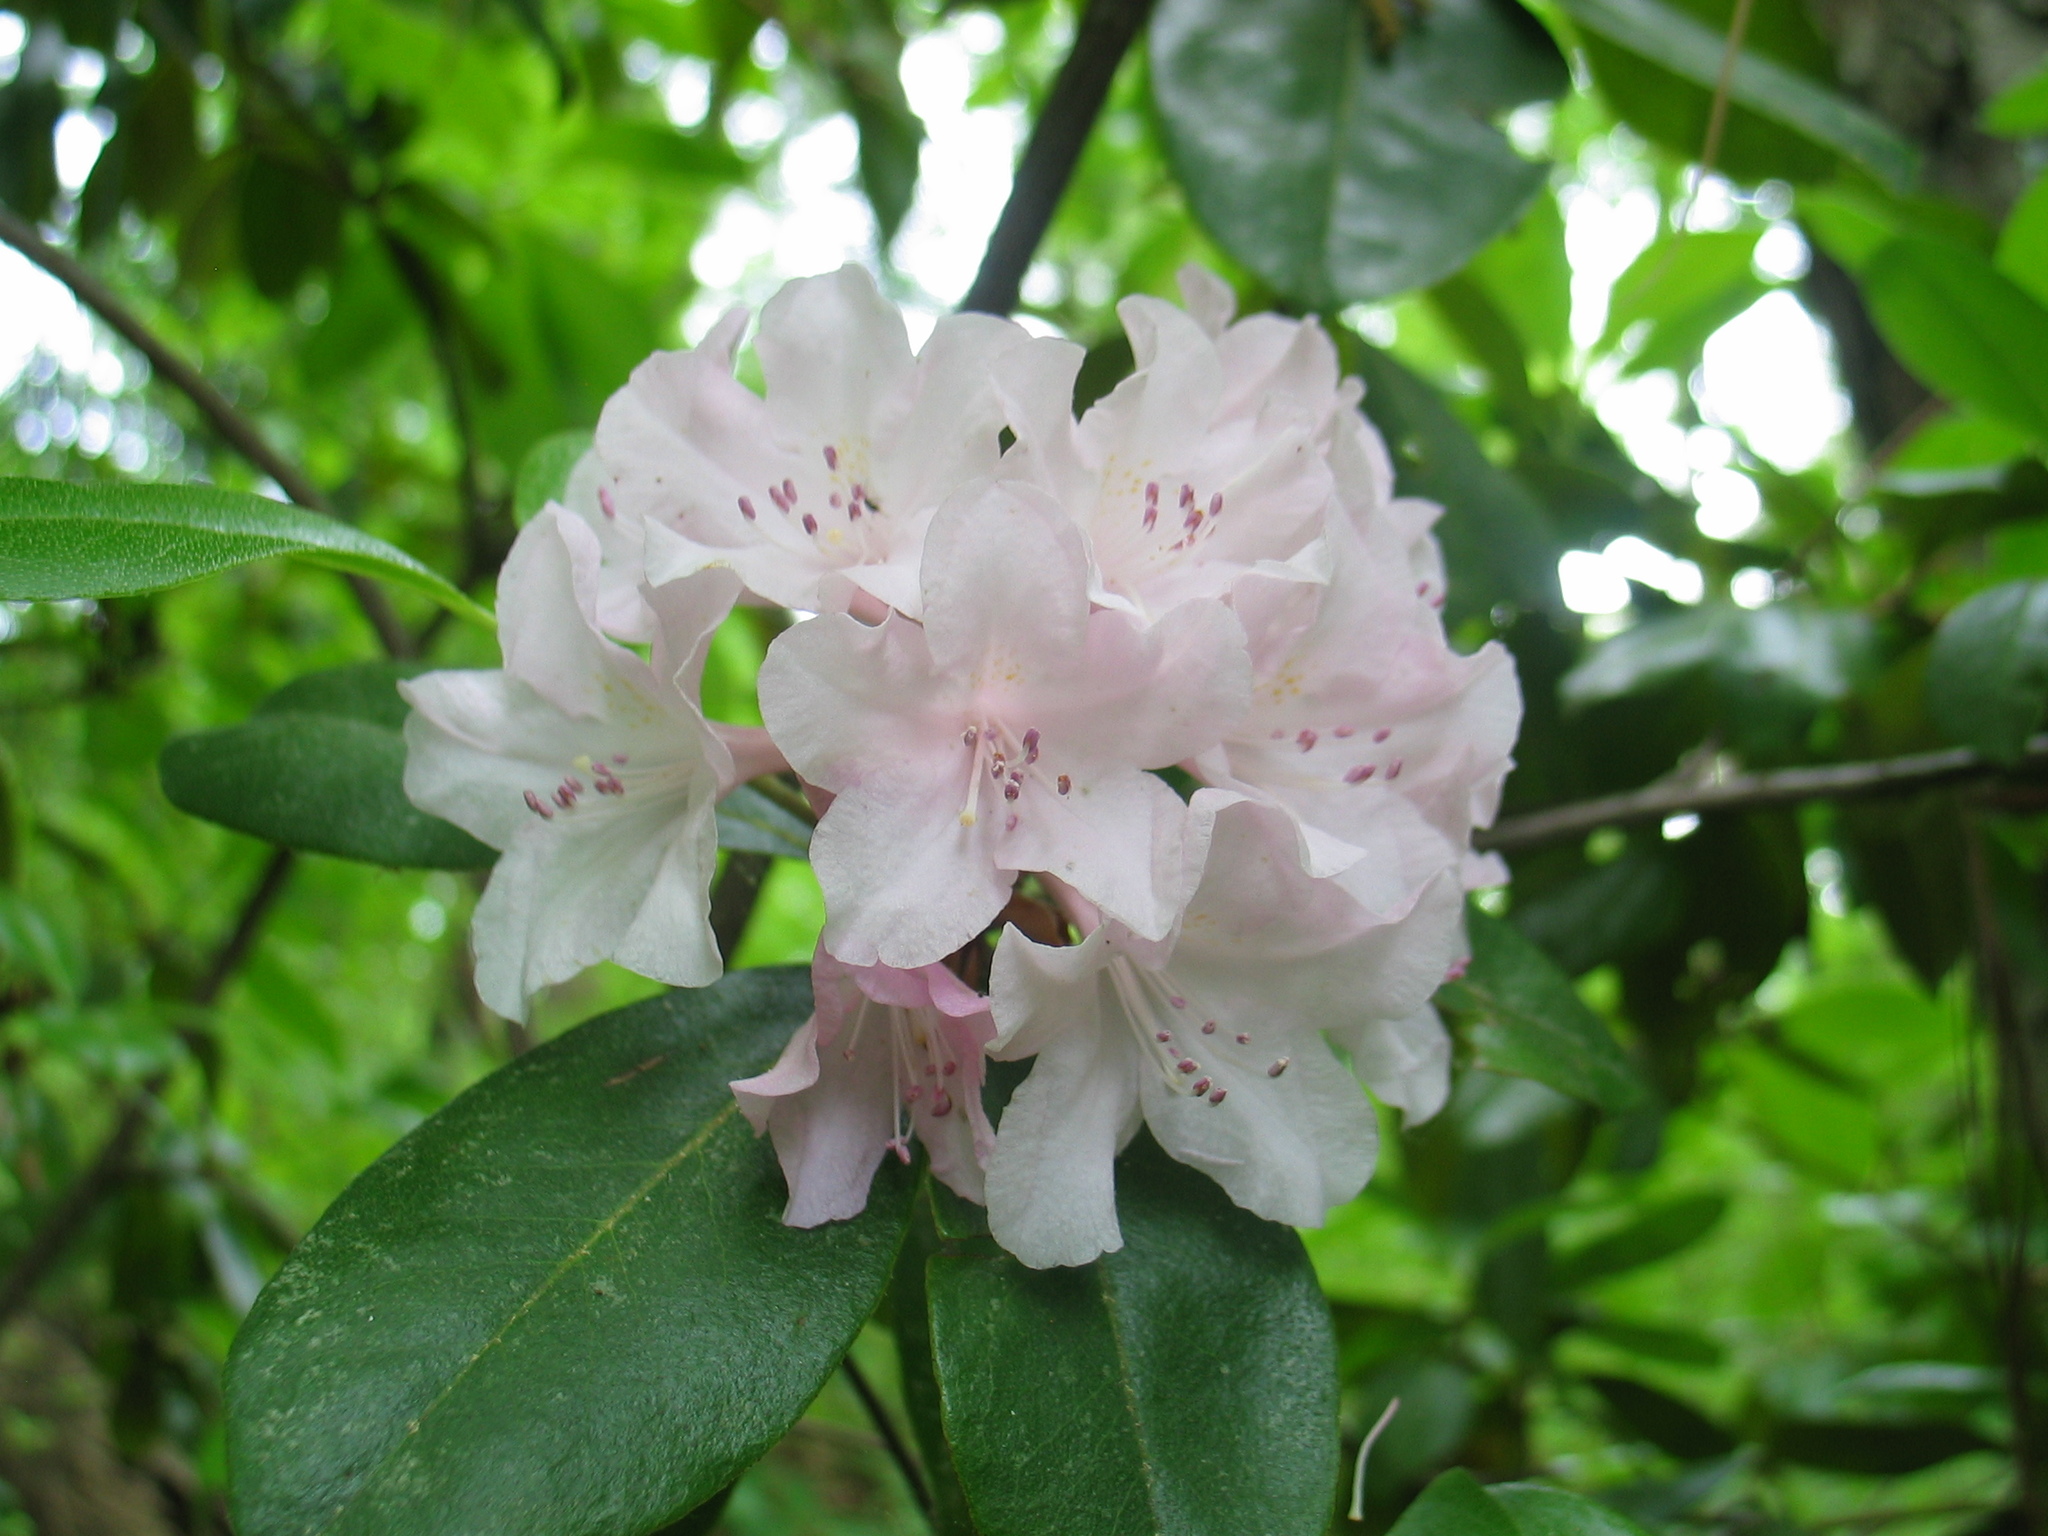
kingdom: Plantae
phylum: Tracheophyta
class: Magnoliopsida
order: Ericales
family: Ericaceae
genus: Rhododendron
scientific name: Rhododendron minus
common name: Piedmont rhododendron
